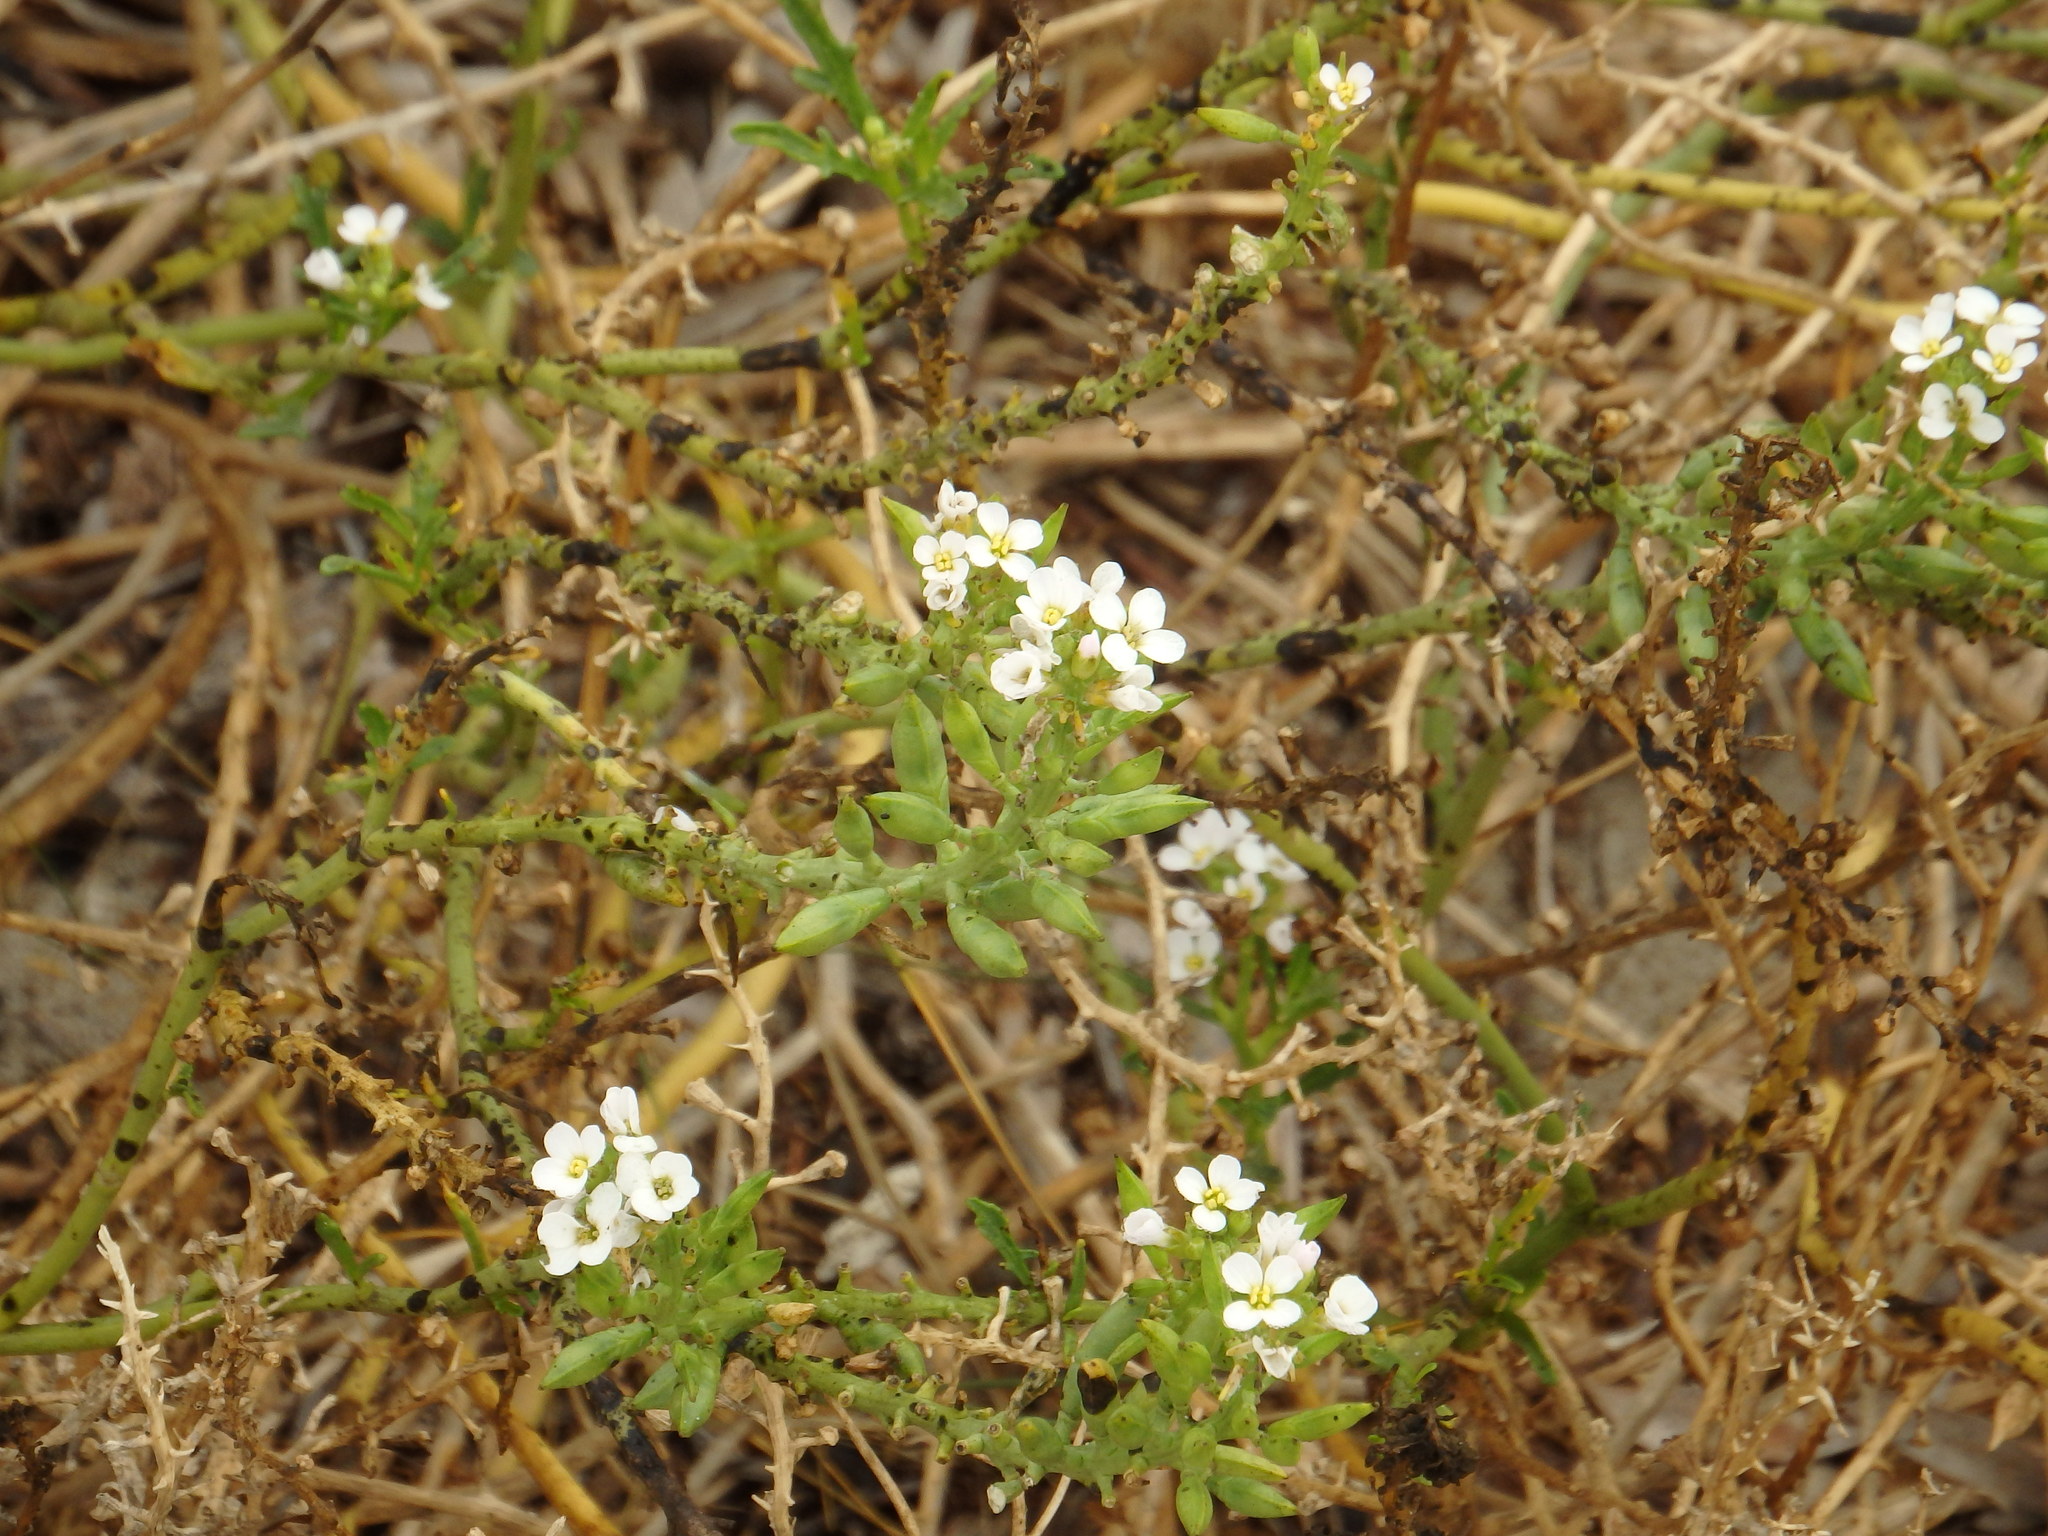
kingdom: Plantae
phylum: Tracheophyta
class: Magnoliopsida
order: Brassicales
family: Brassicaceae
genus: Cakile
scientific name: Cakile maritima
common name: Sea rocket
